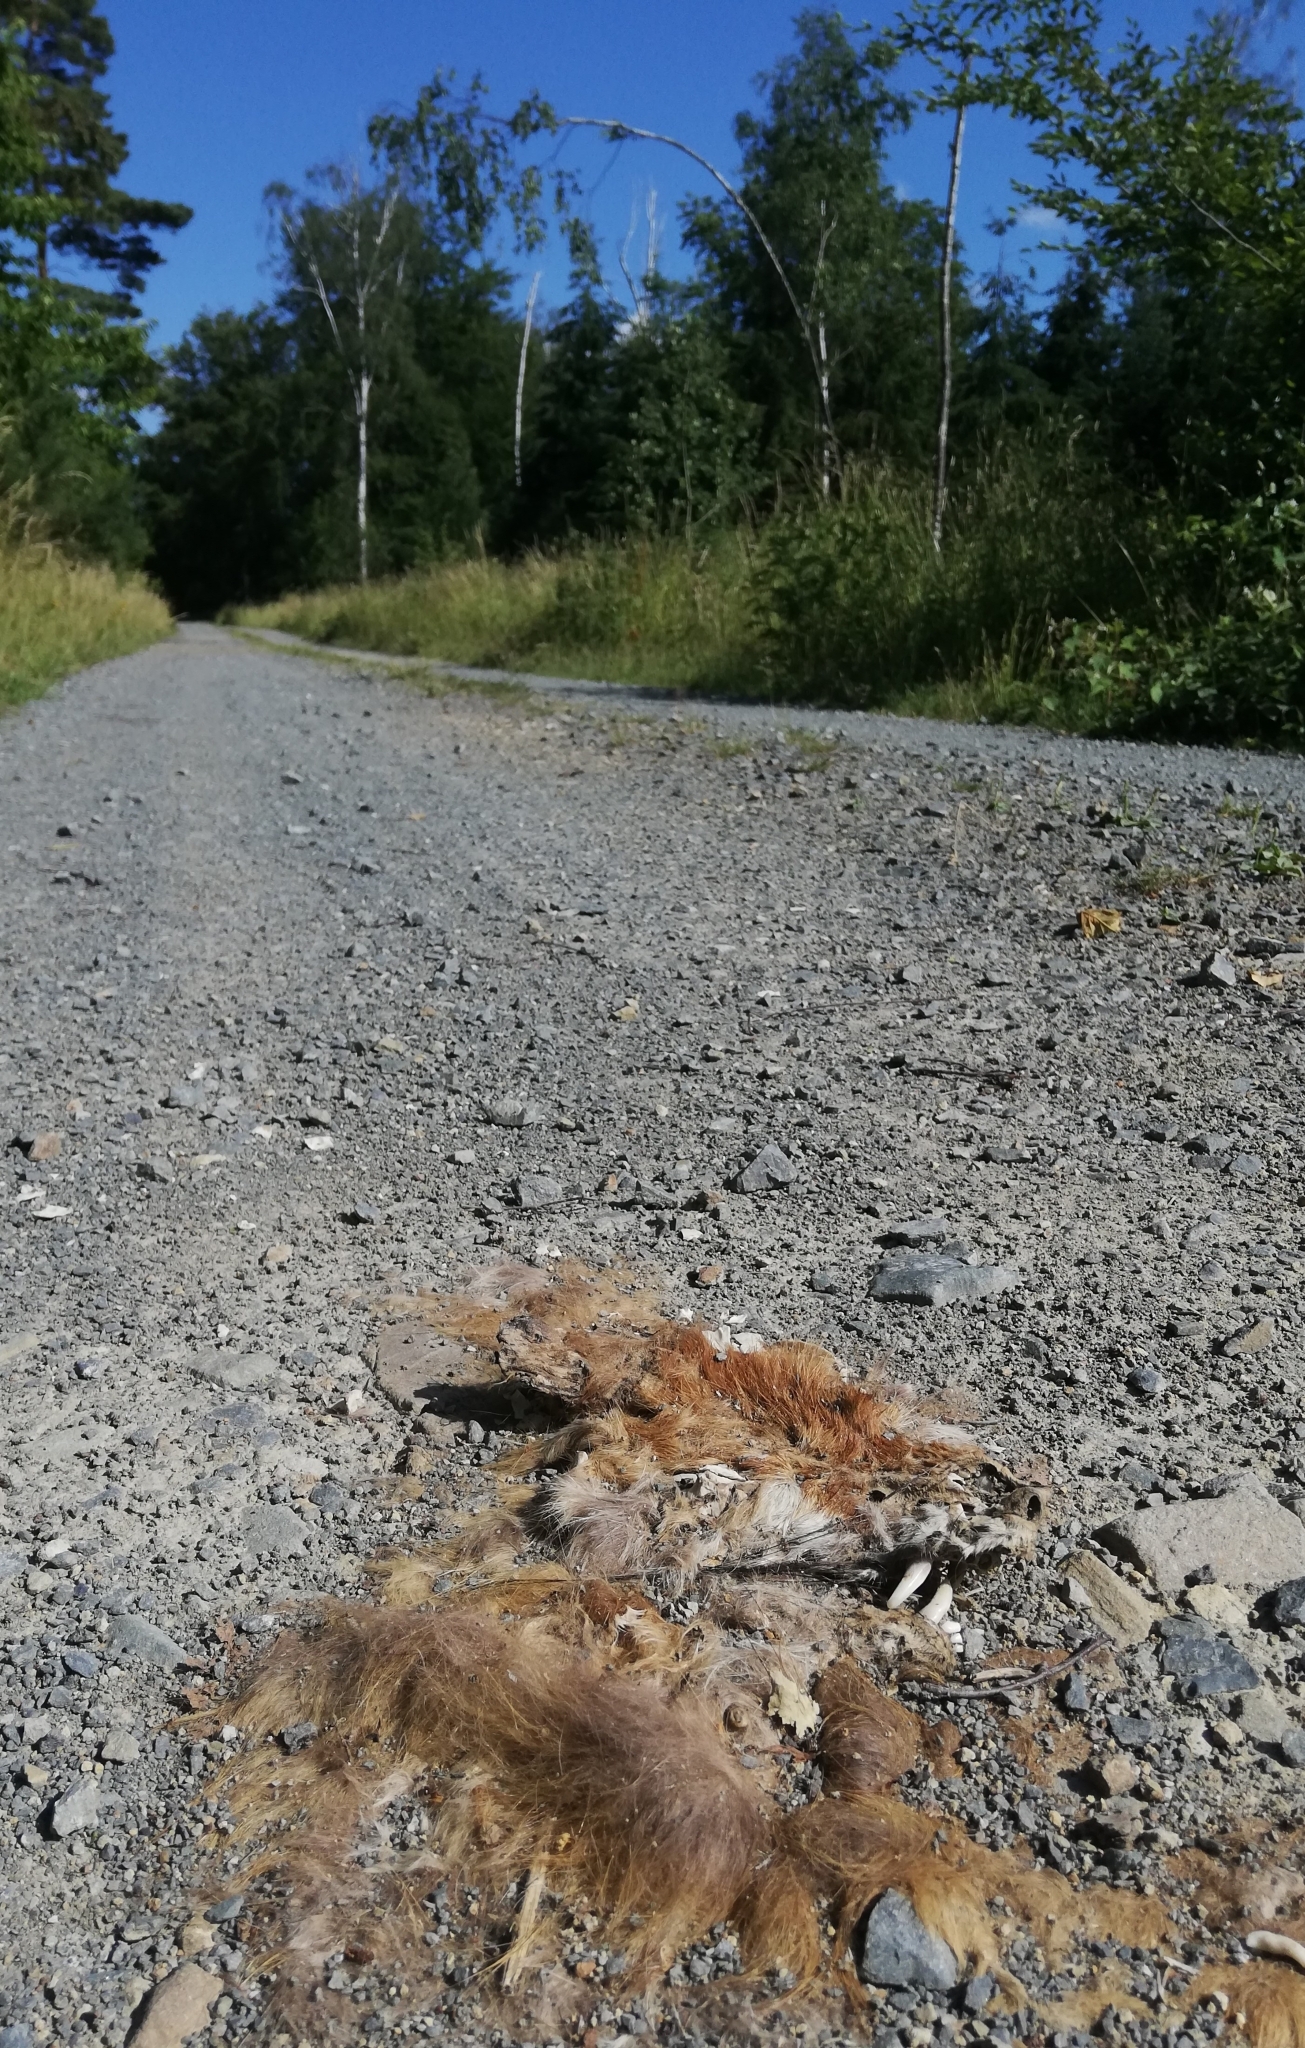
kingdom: Animalia
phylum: Chordata
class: Mammalia
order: Carnivora
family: Canidae
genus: Vulpes
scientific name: Vulpes vulpes
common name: Red fox
